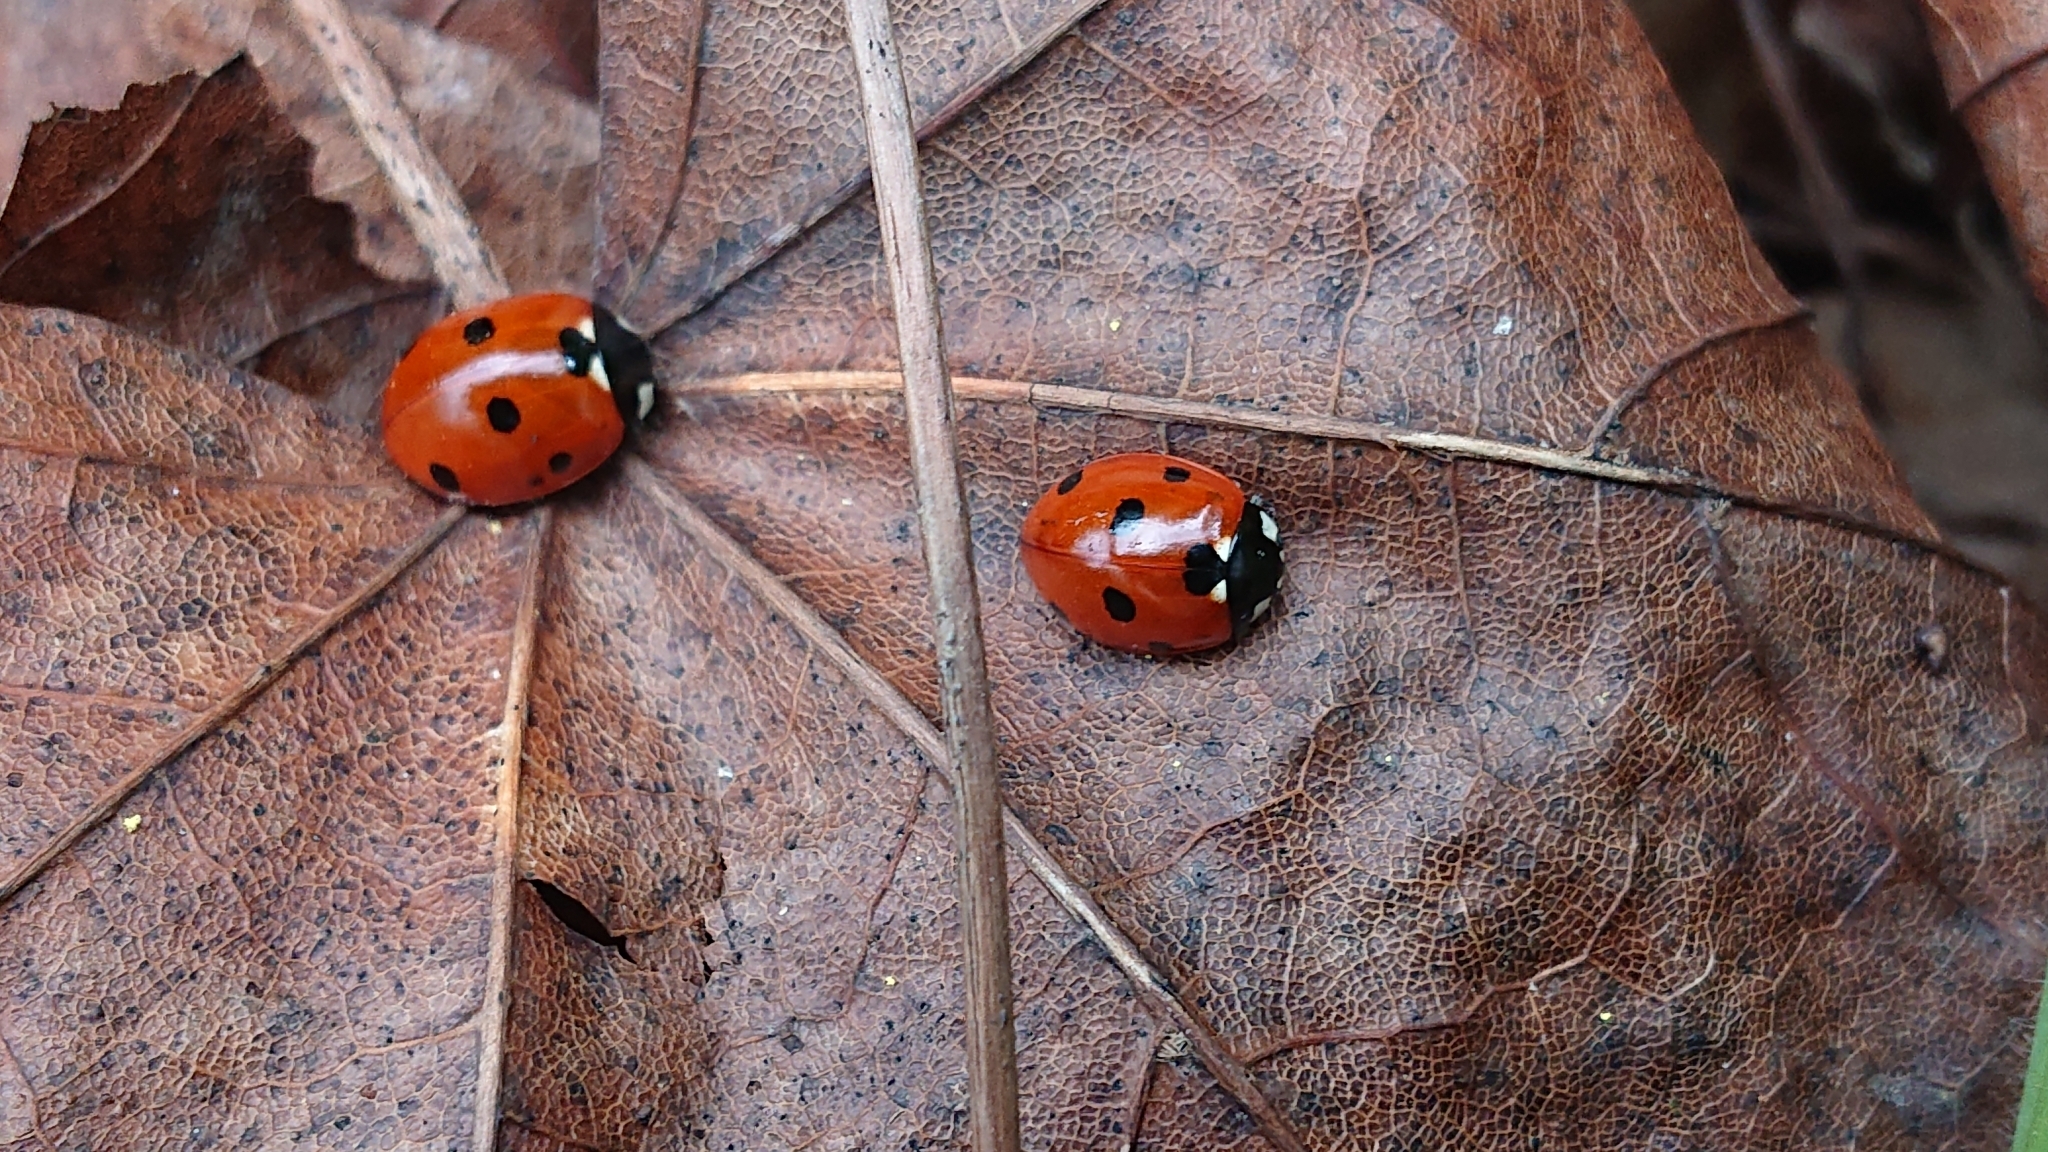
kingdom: Animalia
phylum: Arthropoda
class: Insecta
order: Coleoptera
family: Coccinellidae
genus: Coccinella
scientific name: Coccinella septempunctata
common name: Sevenspotted lady beetle
